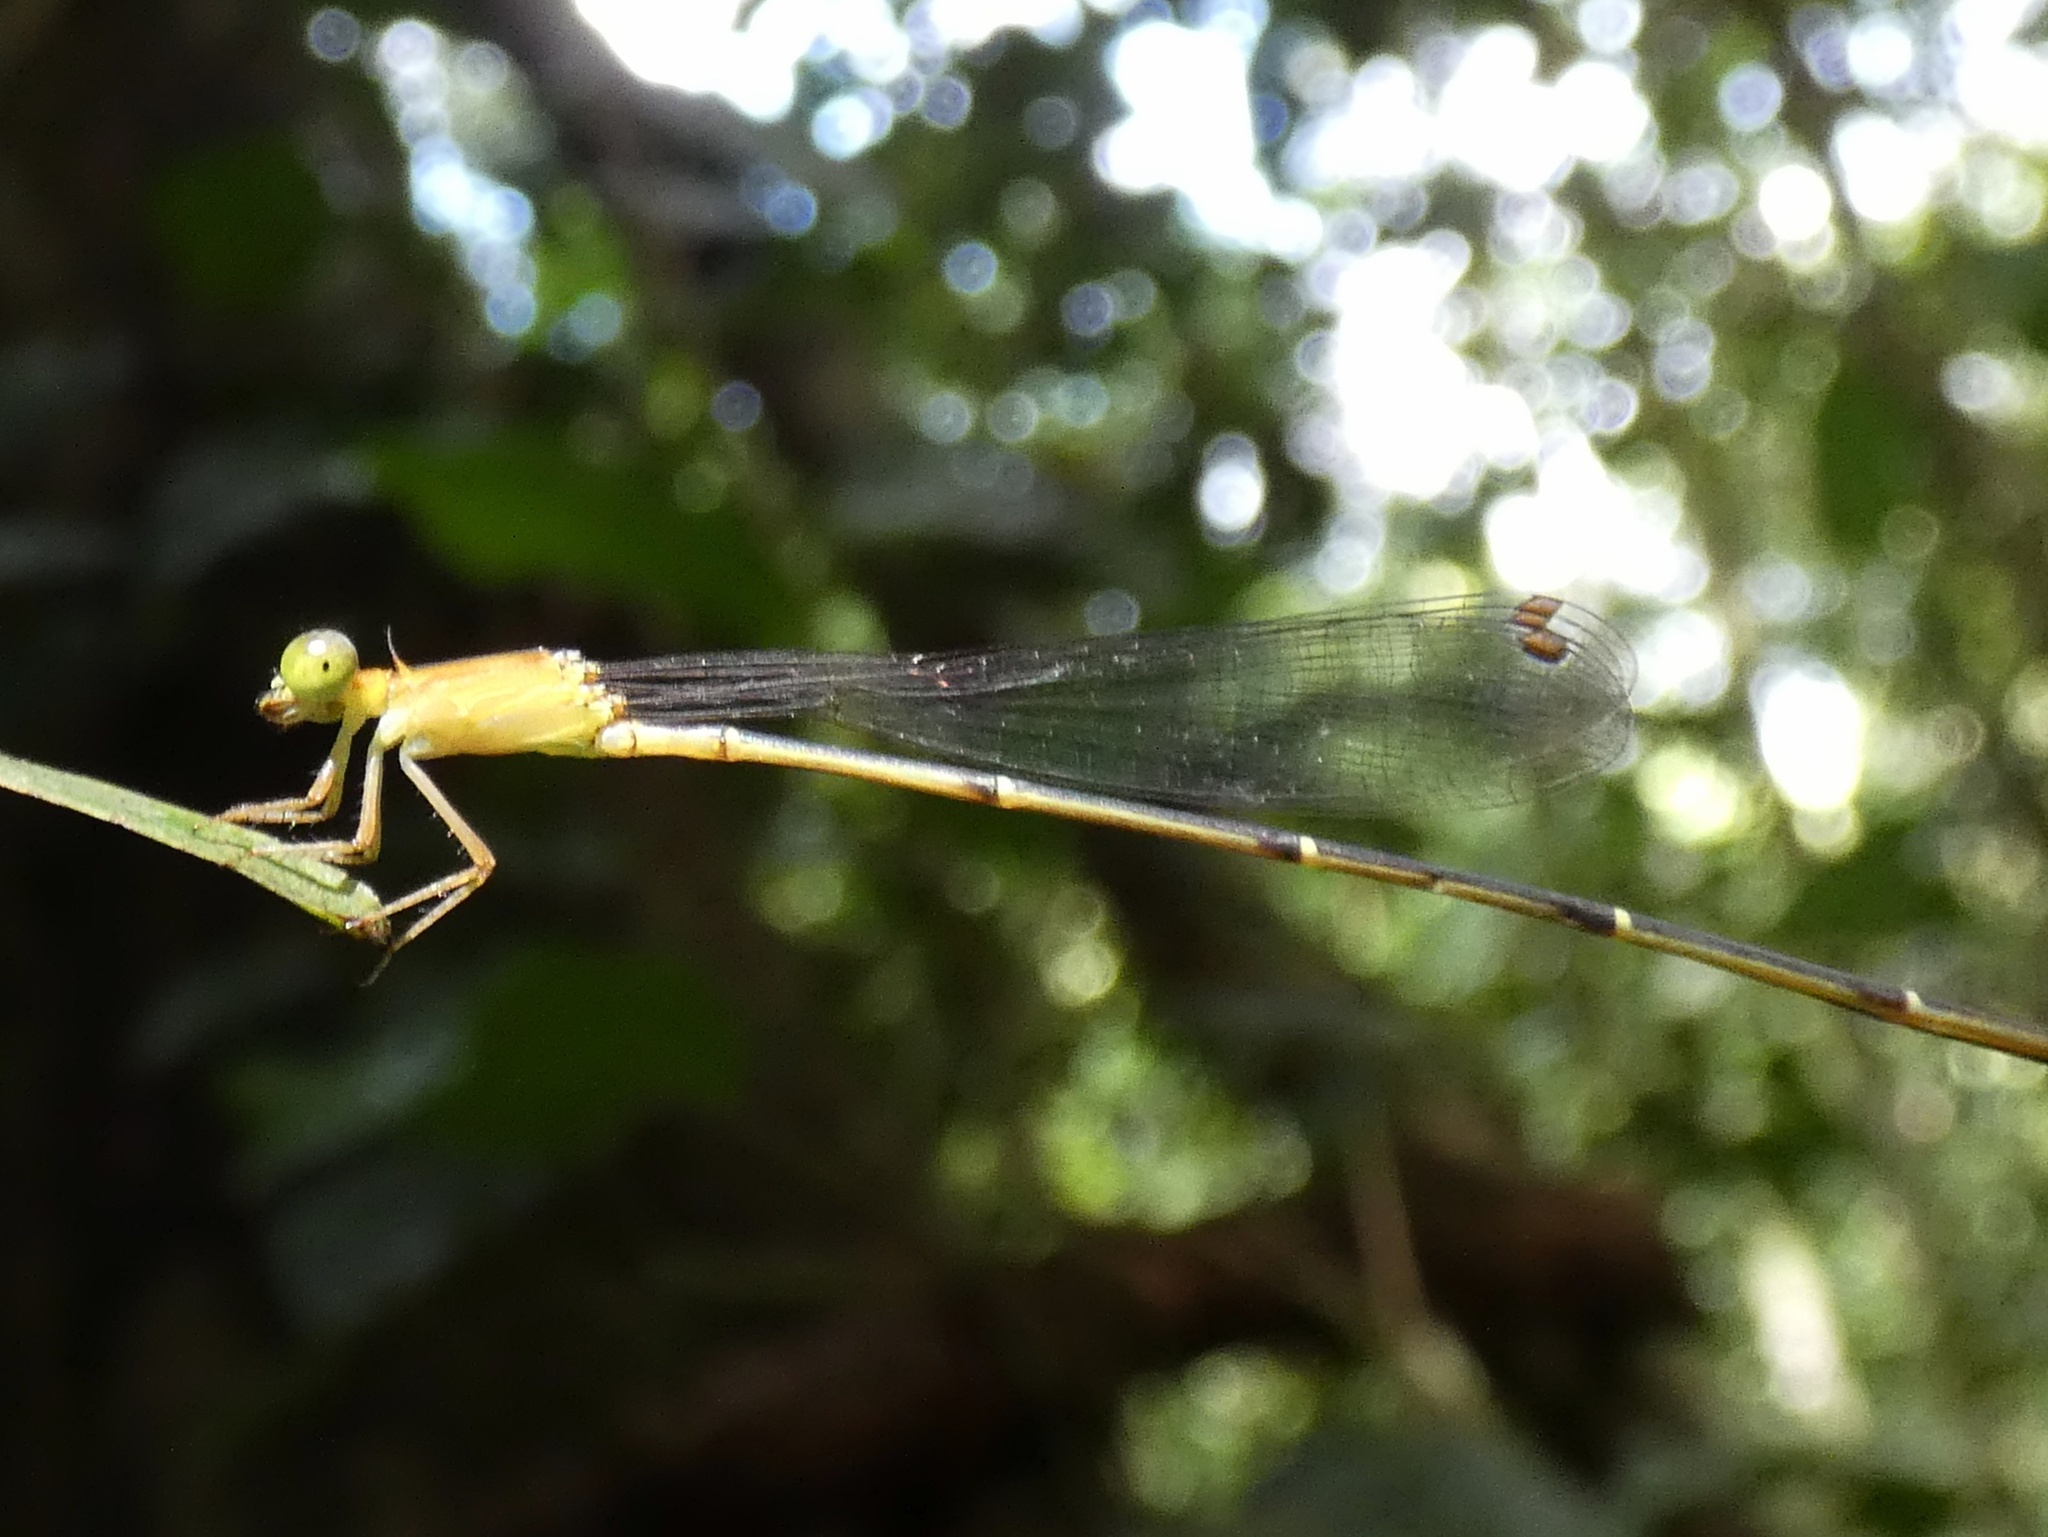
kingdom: Animalia
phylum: Arthropoda
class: Insecta
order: Odonata
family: Coenagrionidae
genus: Metaleptobasis
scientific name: Metaleptobasis foreli
